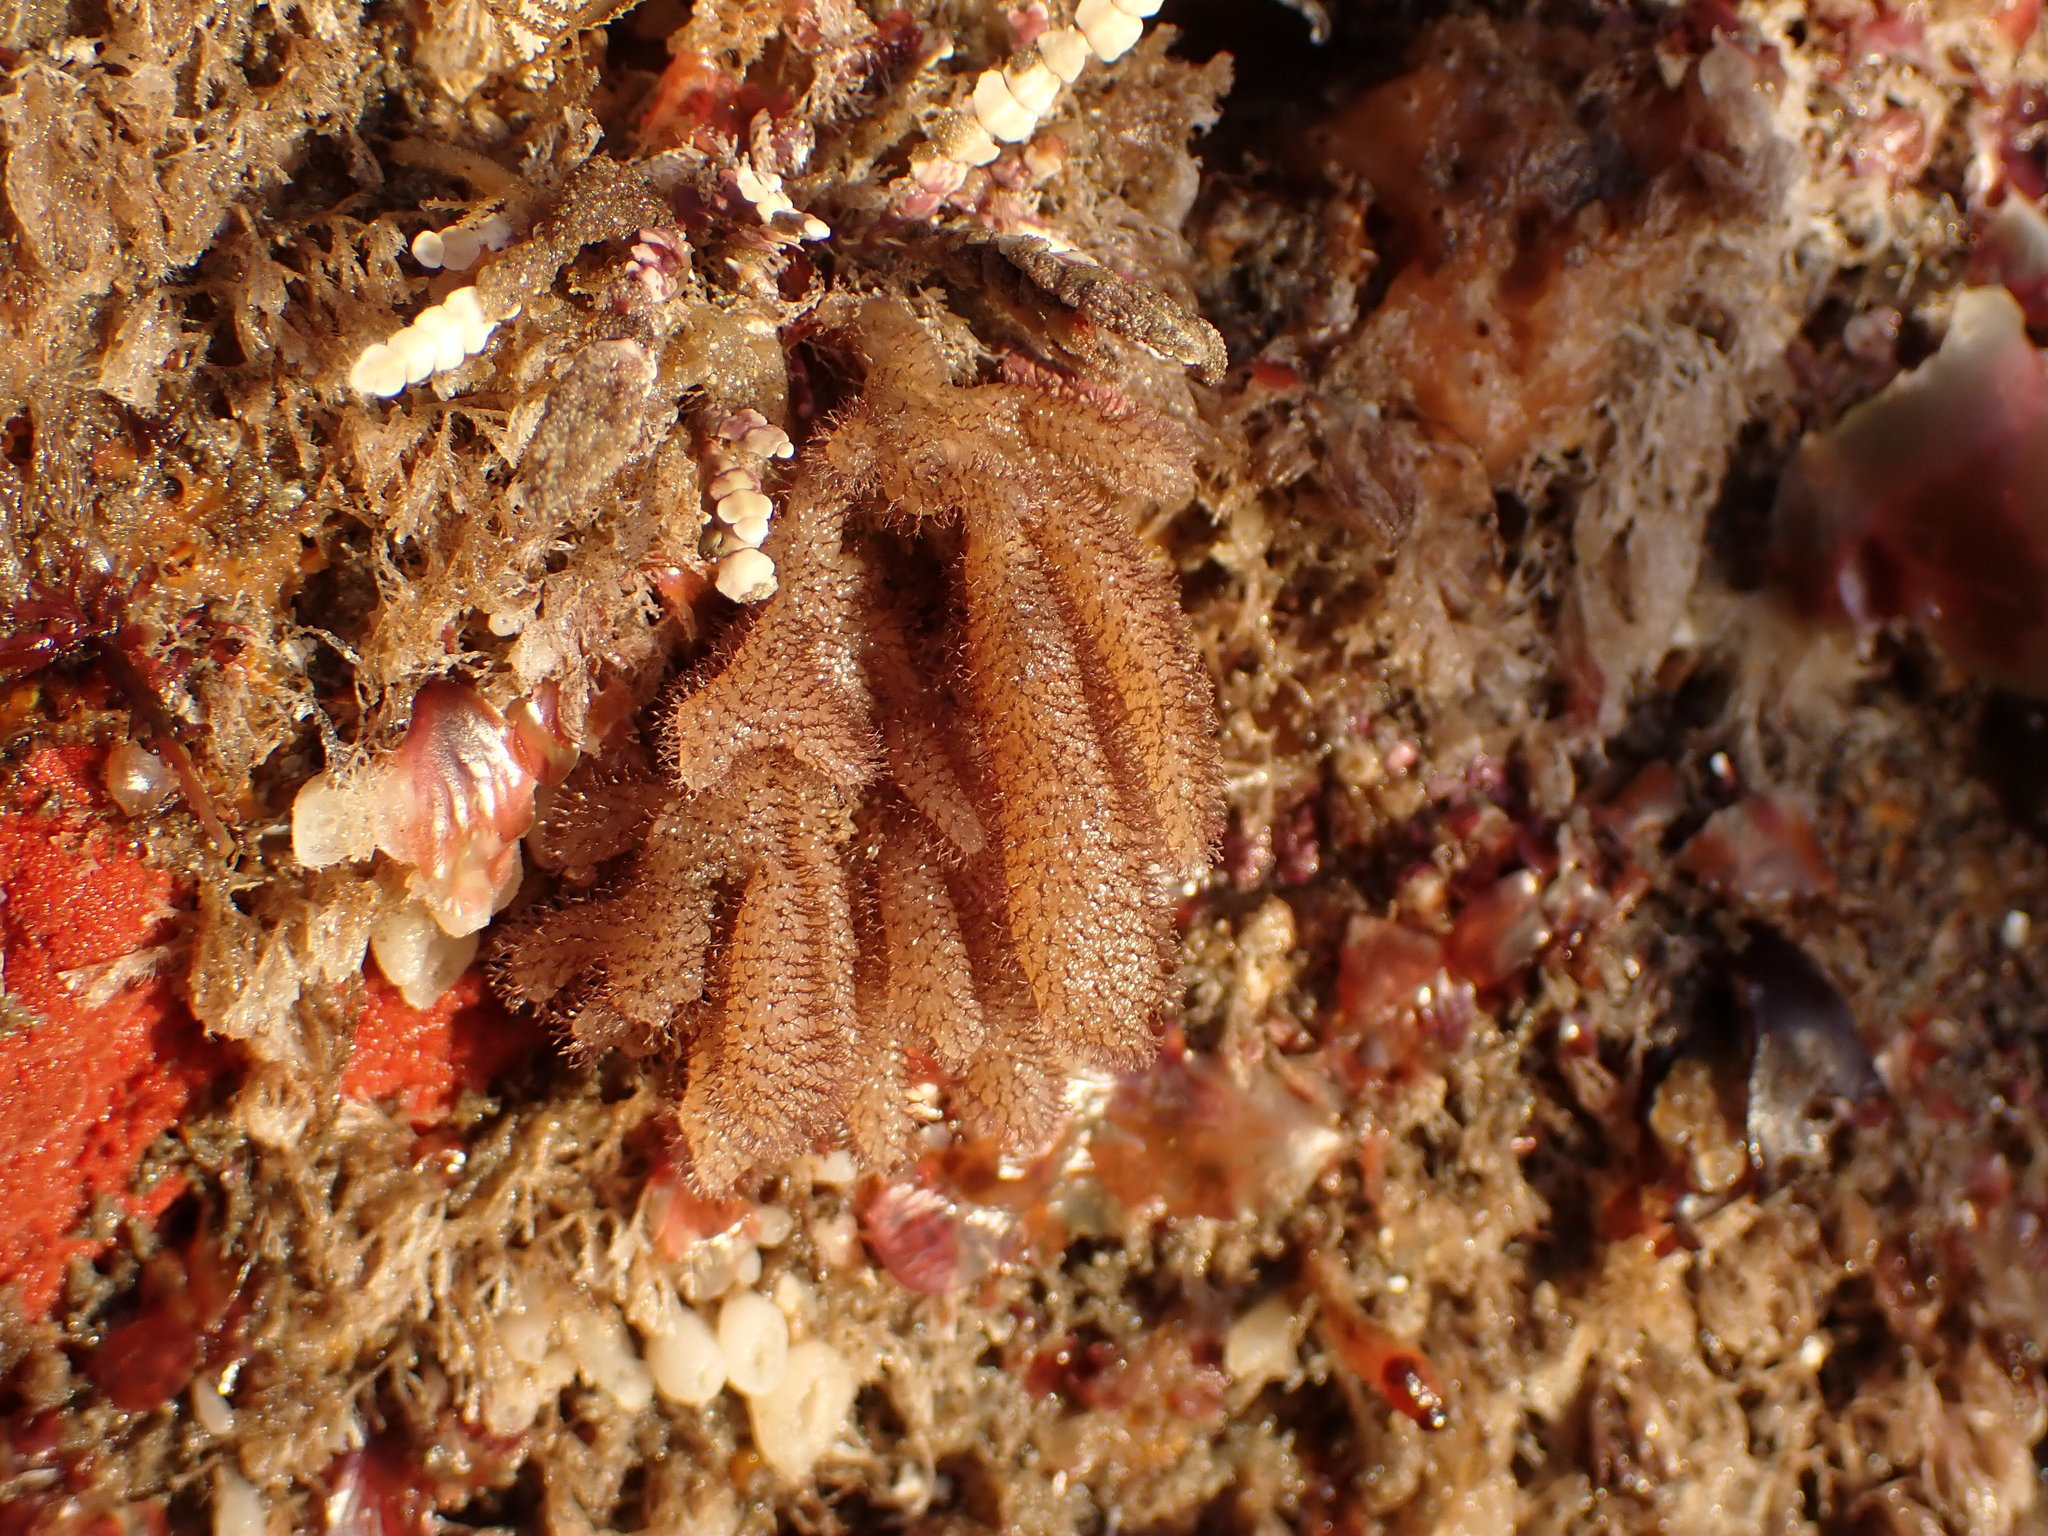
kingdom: Animalia
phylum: Bryozoa
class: Gymnolaemata
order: Ctenostomatida
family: Flustrellidridae
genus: Flustrellidra
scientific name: Flustrellidra corniculata
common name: Spiny leather bryozoan
